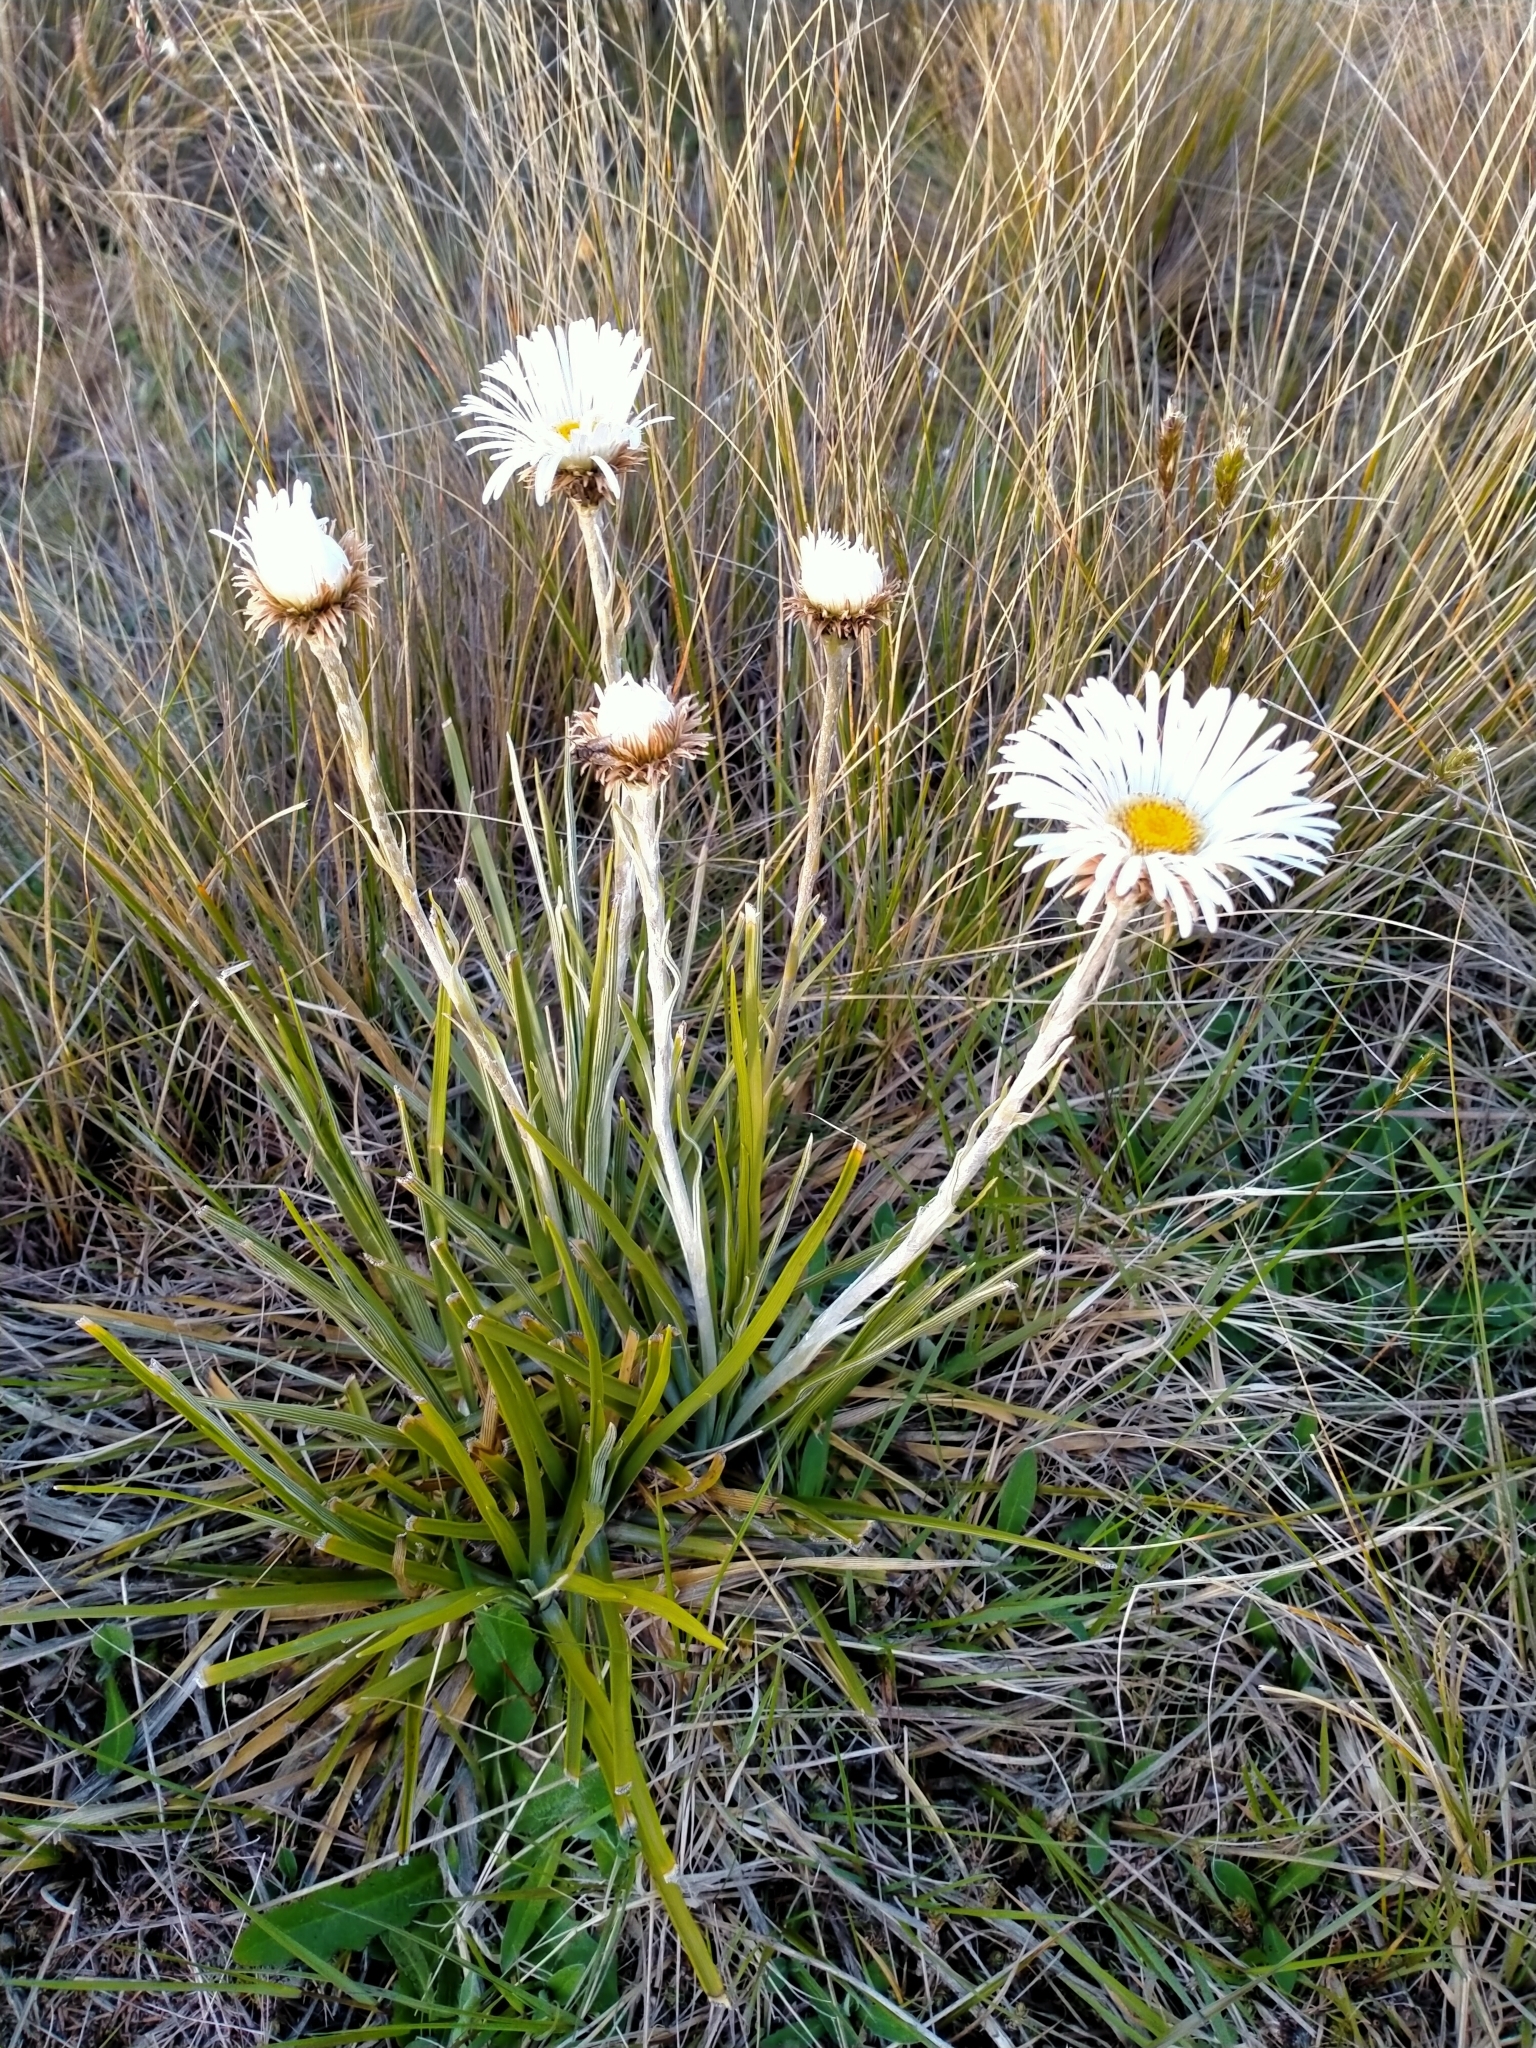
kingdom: Plantae
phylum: Tracheophyta
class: Magnoliopsida
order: Asterales
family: Asteraceae
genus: Celmisia
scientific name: Celmisia lyallii
